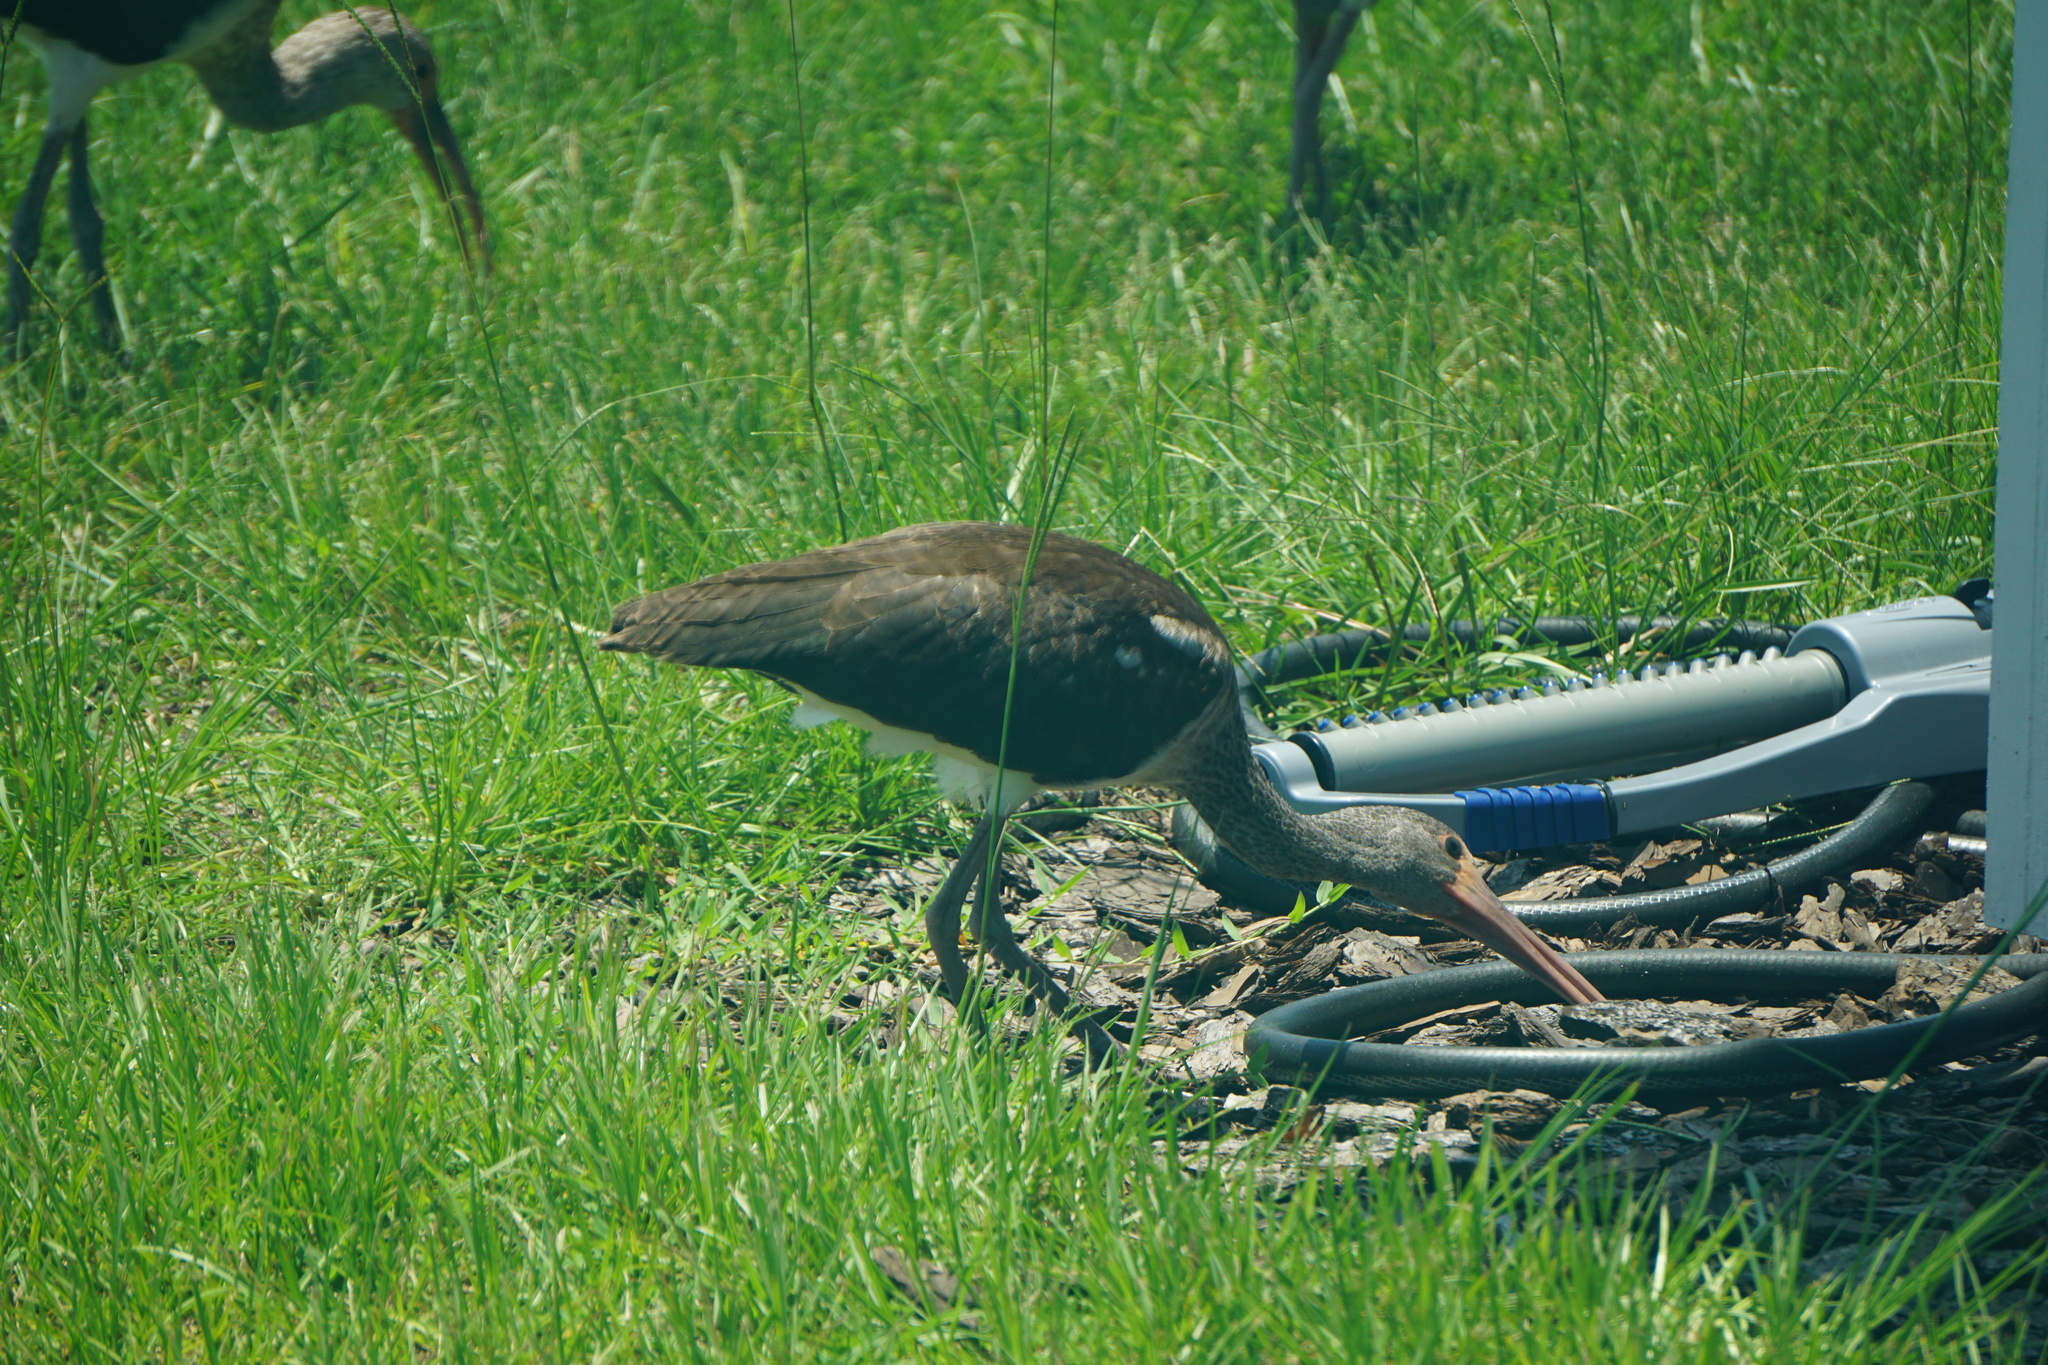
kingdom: Animalia
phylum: Chordata
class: Aves
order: Pelecaniformes
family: Threskiornithidae
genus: Eudocimus
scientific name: Eudocimus albus
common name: White ibis
